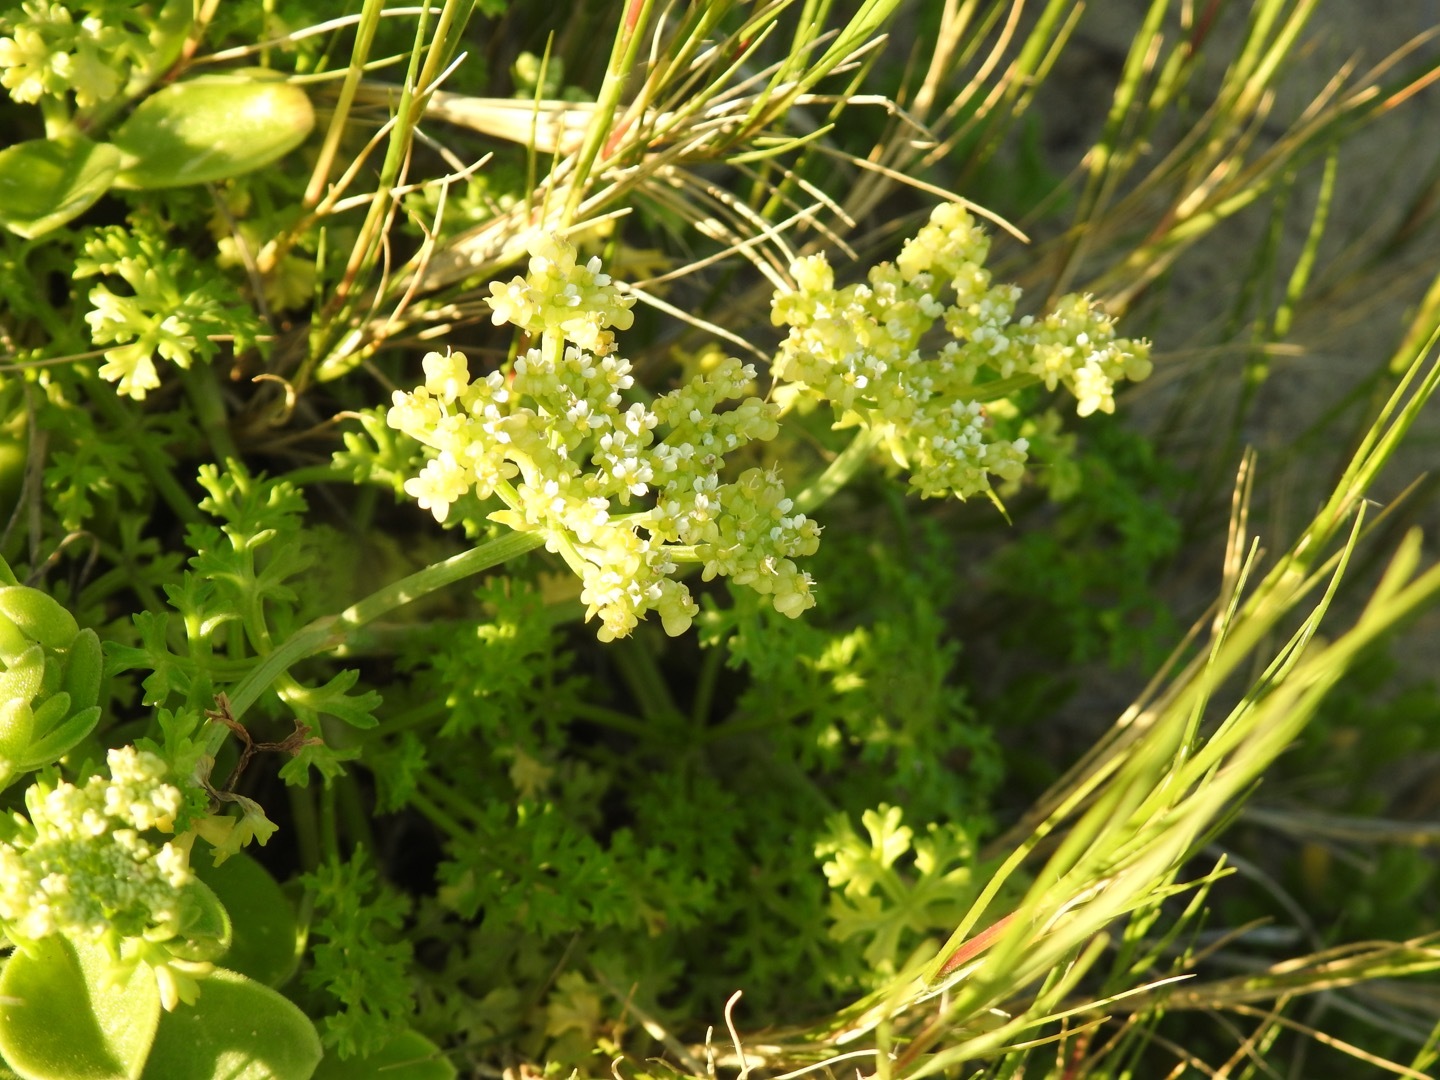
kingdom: Plantae
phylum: Tracheophyta
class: Magnoliopsida
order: Apiales
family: Apiaceae
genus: Dasispermum
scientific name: Dasispermum suffruticosum
